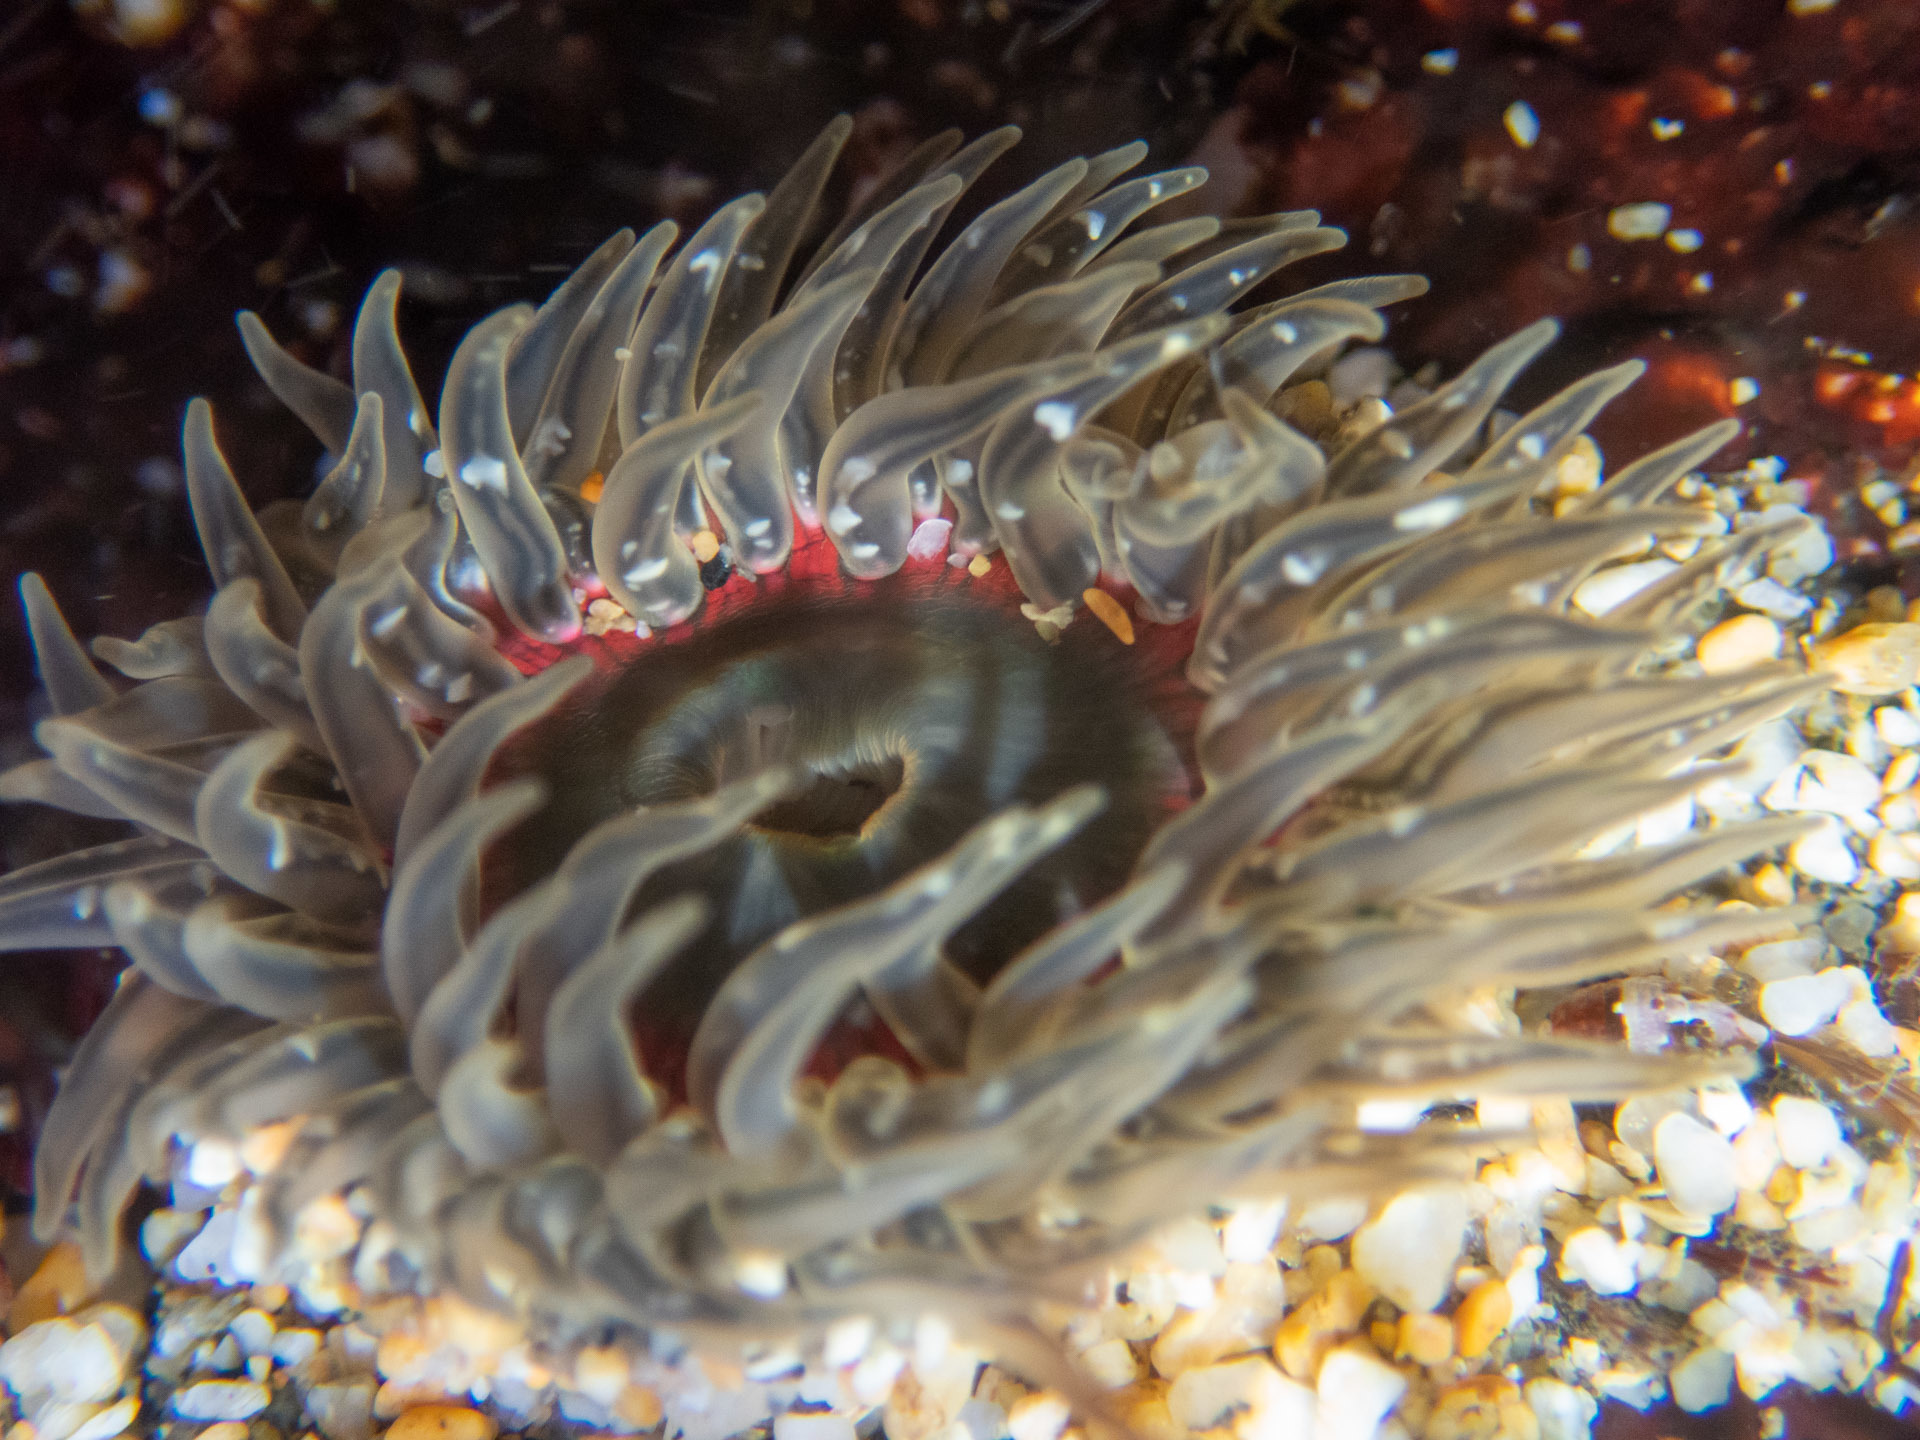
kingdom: Animalia
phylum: Cnidaria
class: Anthozoa
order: Actiniaria
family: Actiniidae
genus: Anthopleura
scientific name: Anthopleura artemisia
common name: Buried sea anemone
